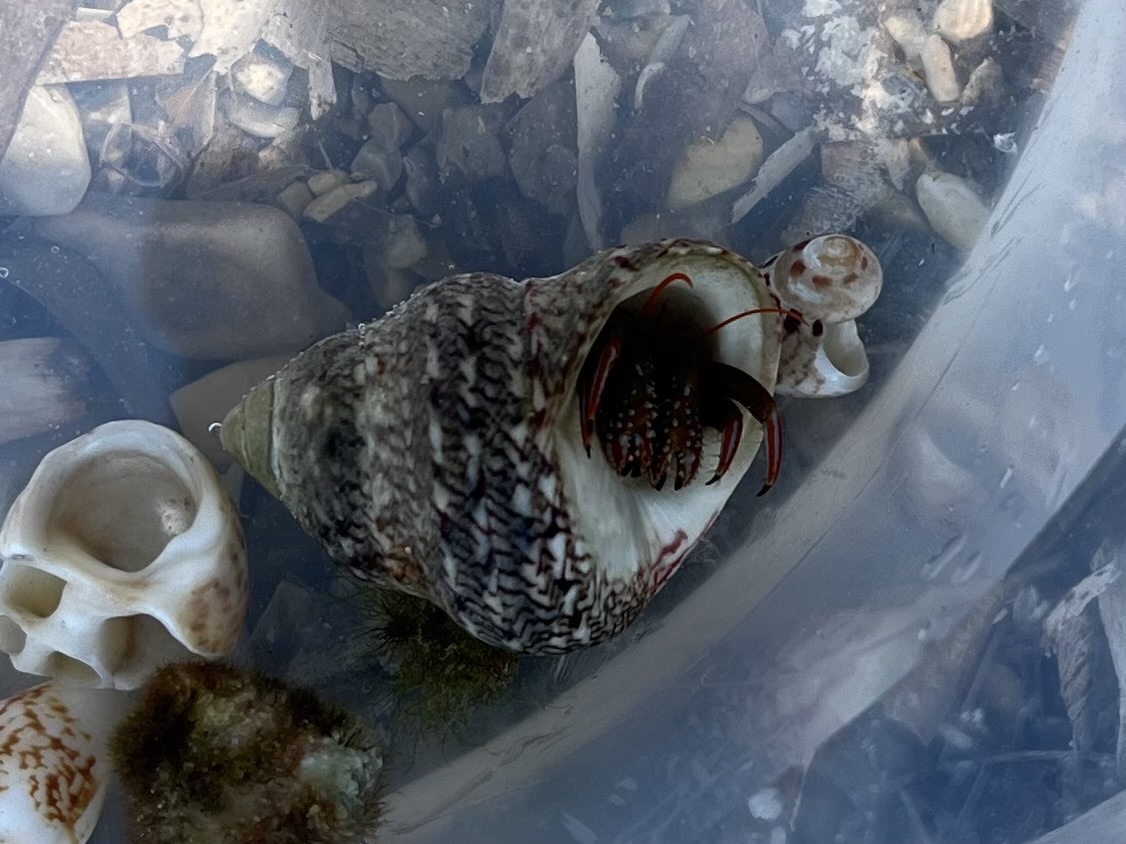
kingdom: Animalia
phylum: Mollusca
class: Gastropoda
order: Trochida
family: Trochidae
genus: Phorcus
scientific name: Phorcus articulatus
